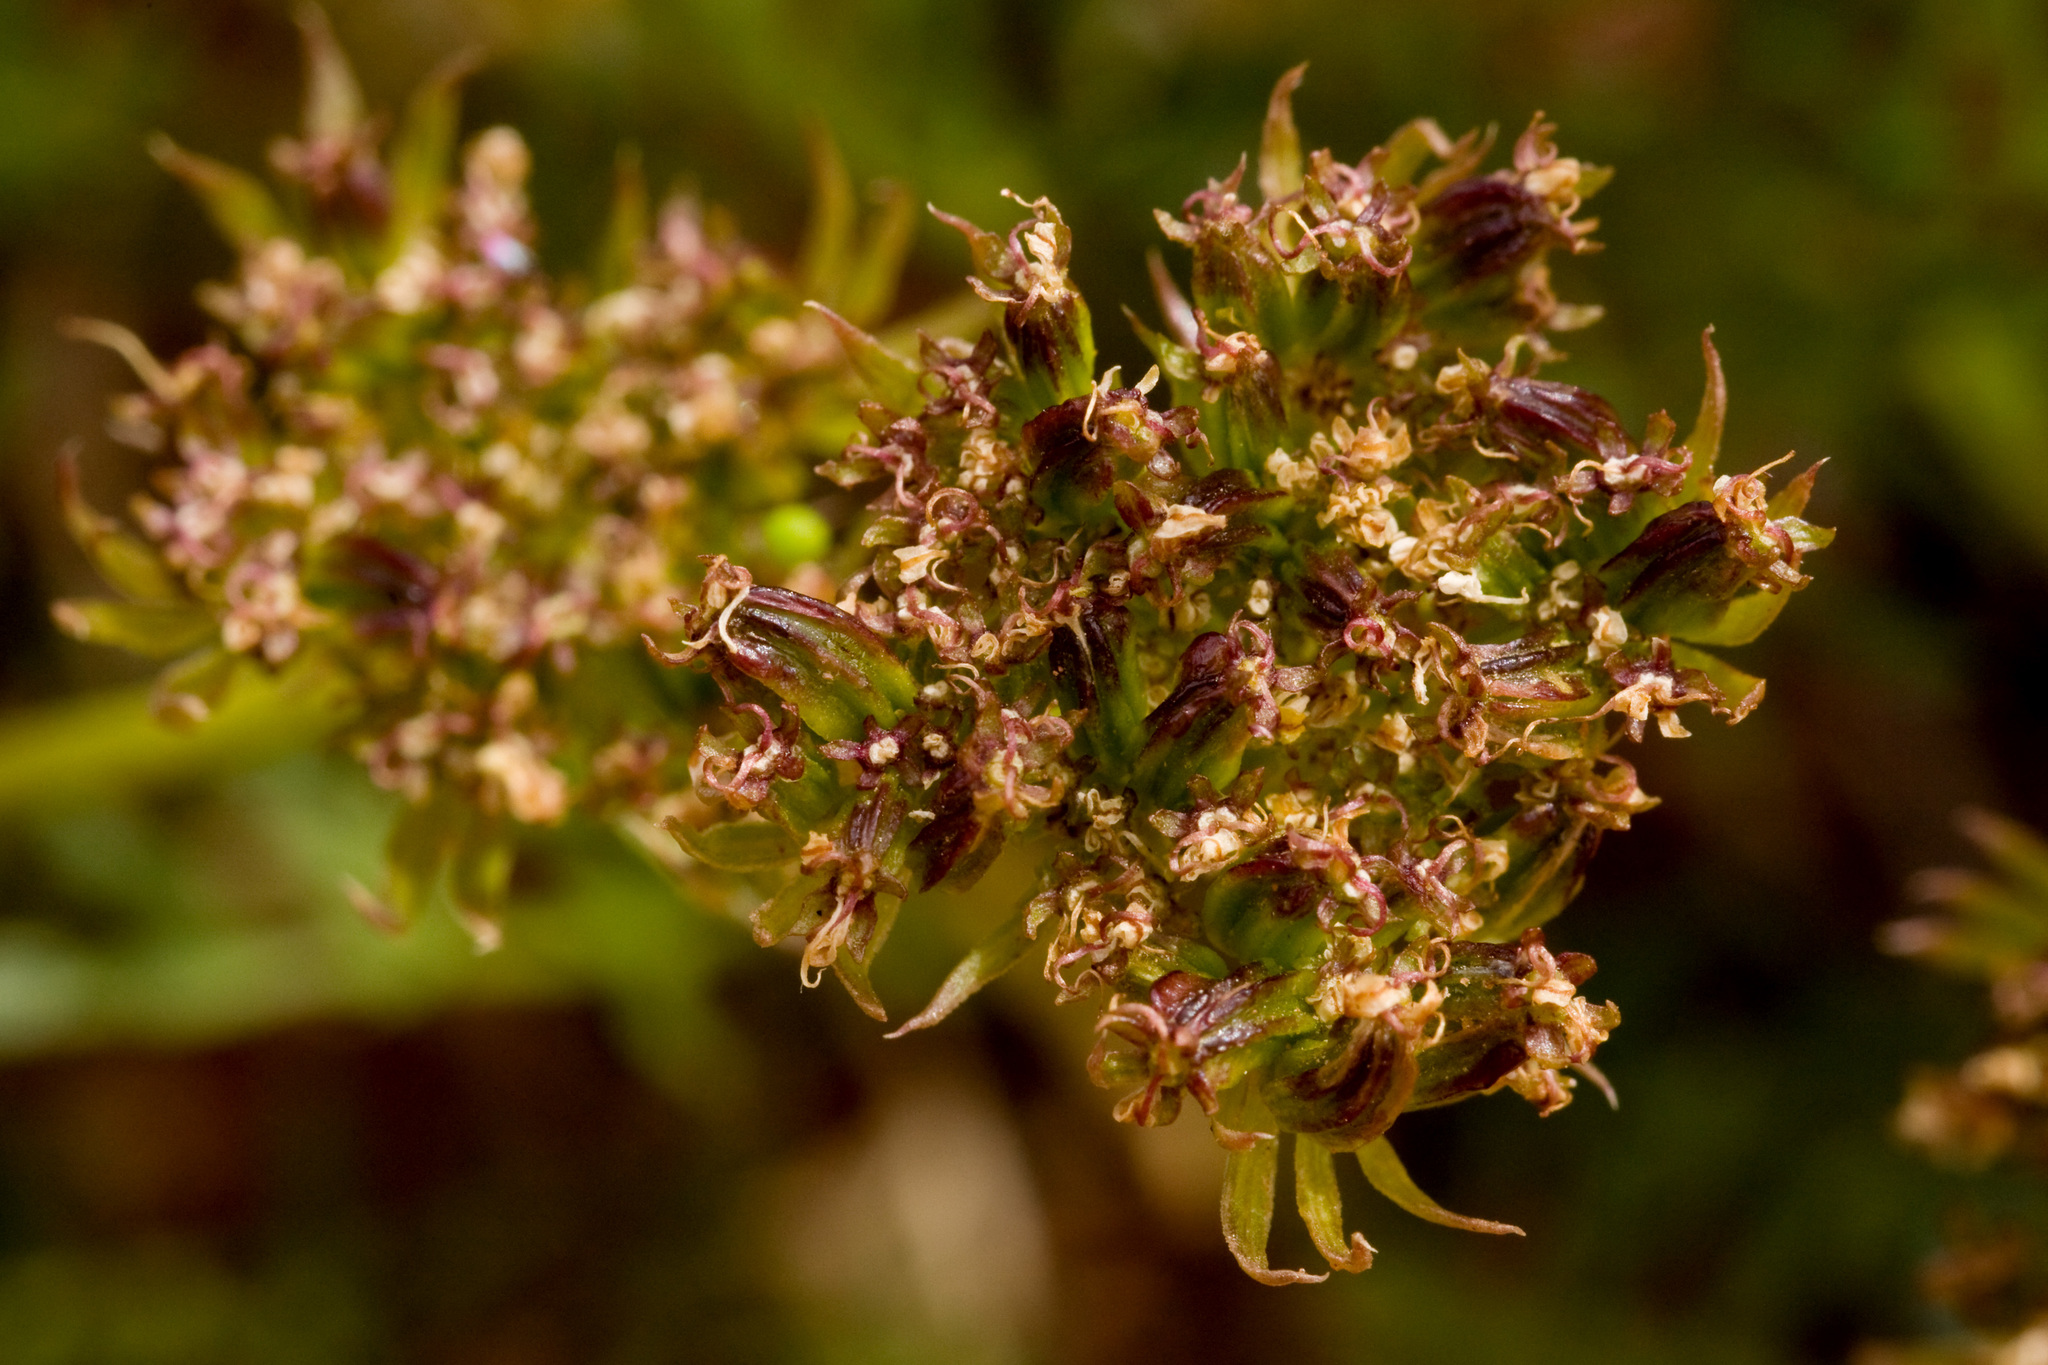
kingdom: Plantae
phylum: Tracheophyta
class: Magnoliopsida
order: Apiales
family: Apiaceae
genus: Cymopterus
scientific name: Cymopterus sessiliflorus
